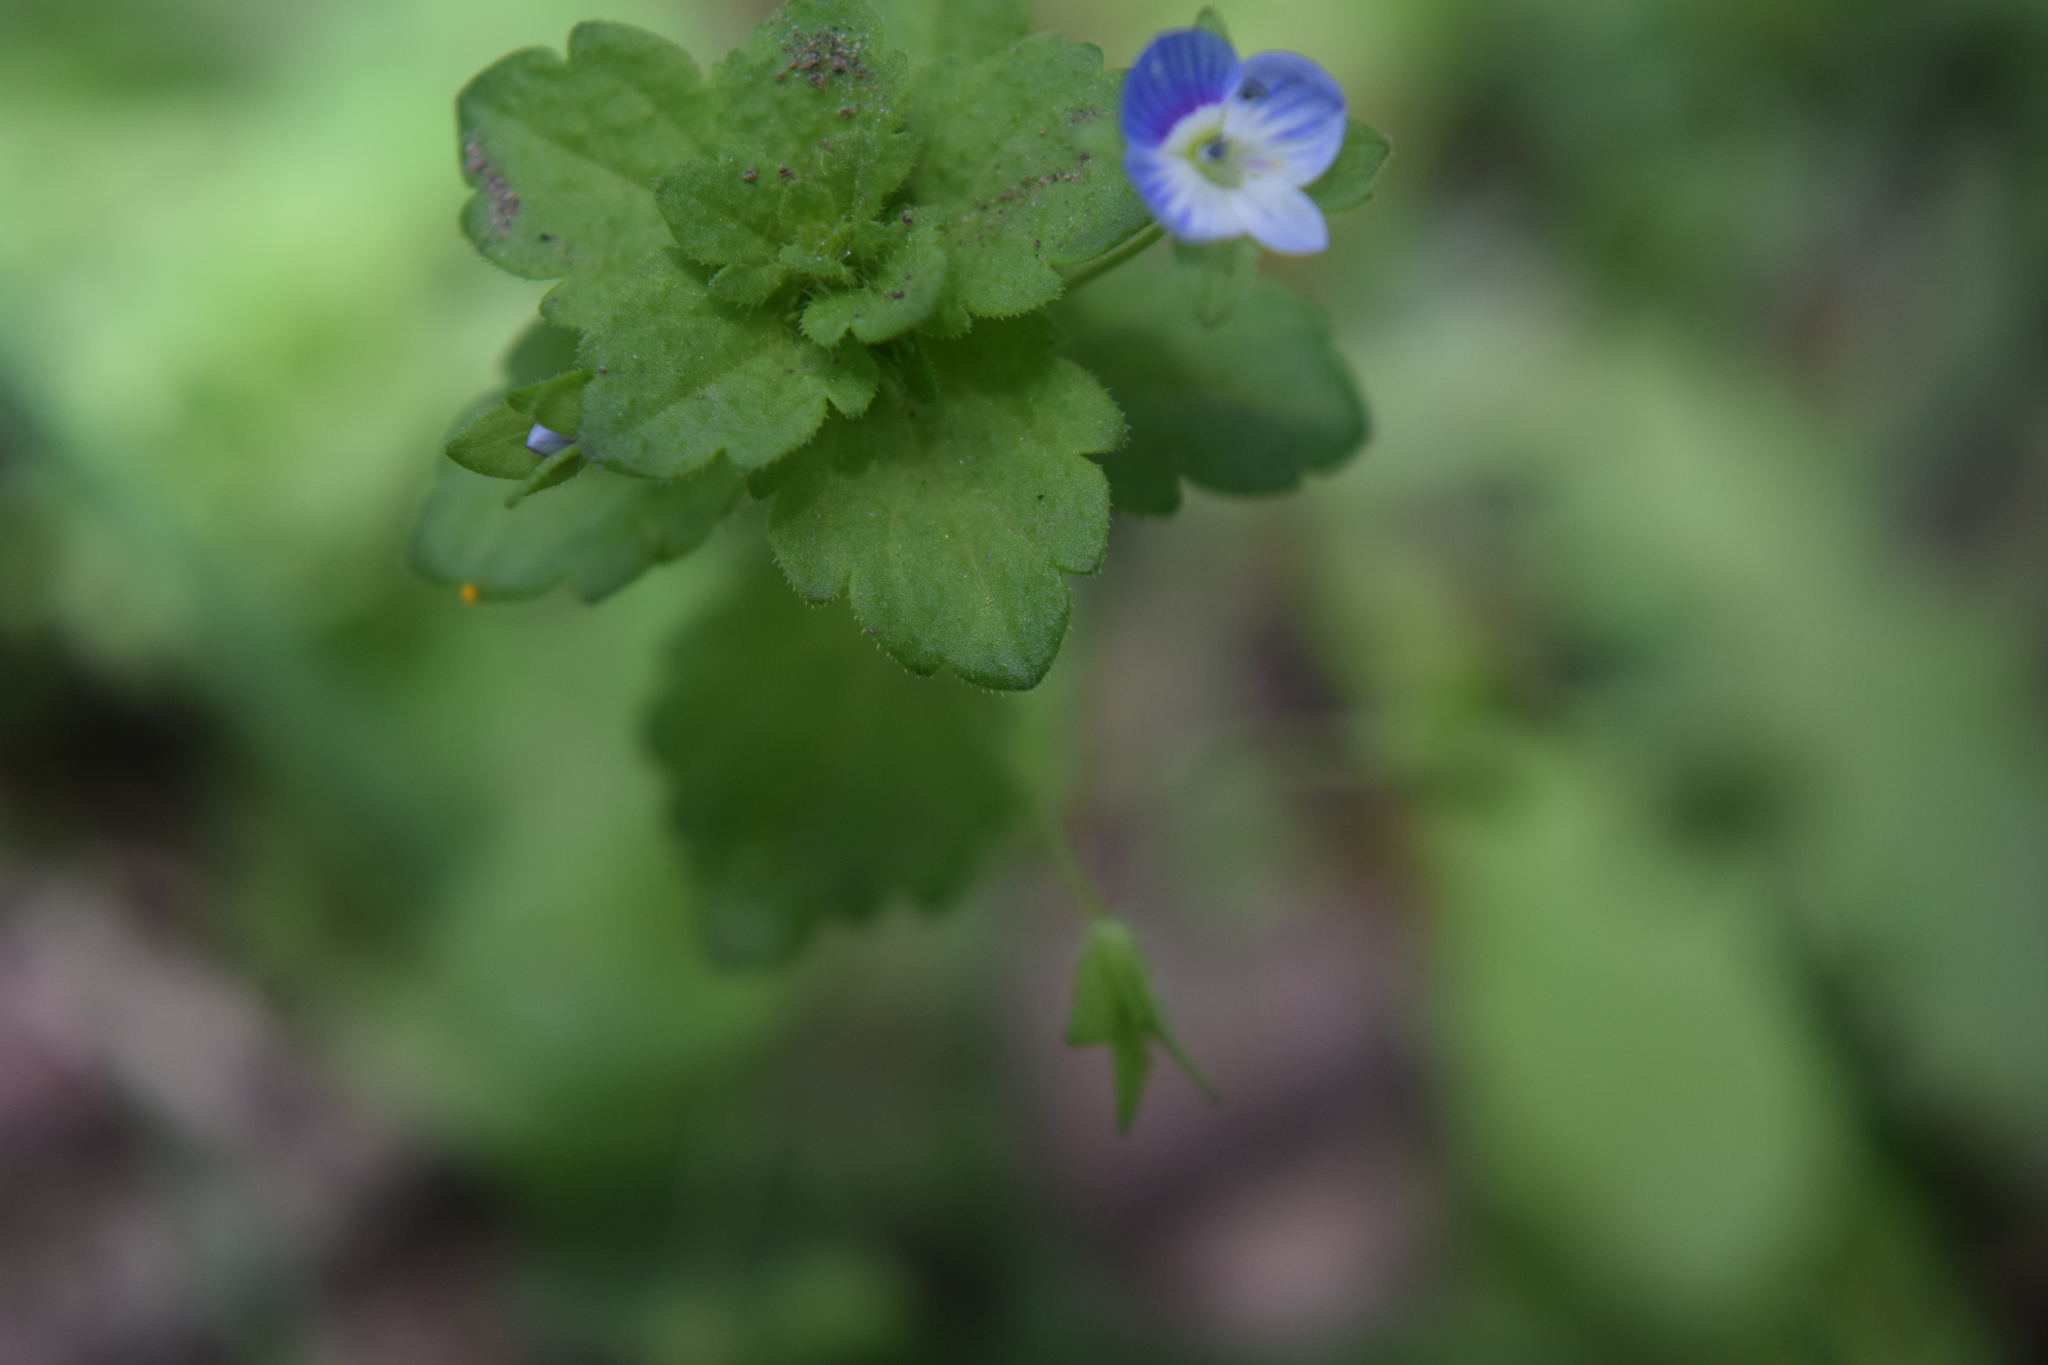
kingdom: Plantae
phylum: Tracheophyta
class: Magnoliopsida
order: Lamiales
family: Plantaginaceae
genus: Veronica
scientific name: Veronica persica
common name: Common field-speedwell
